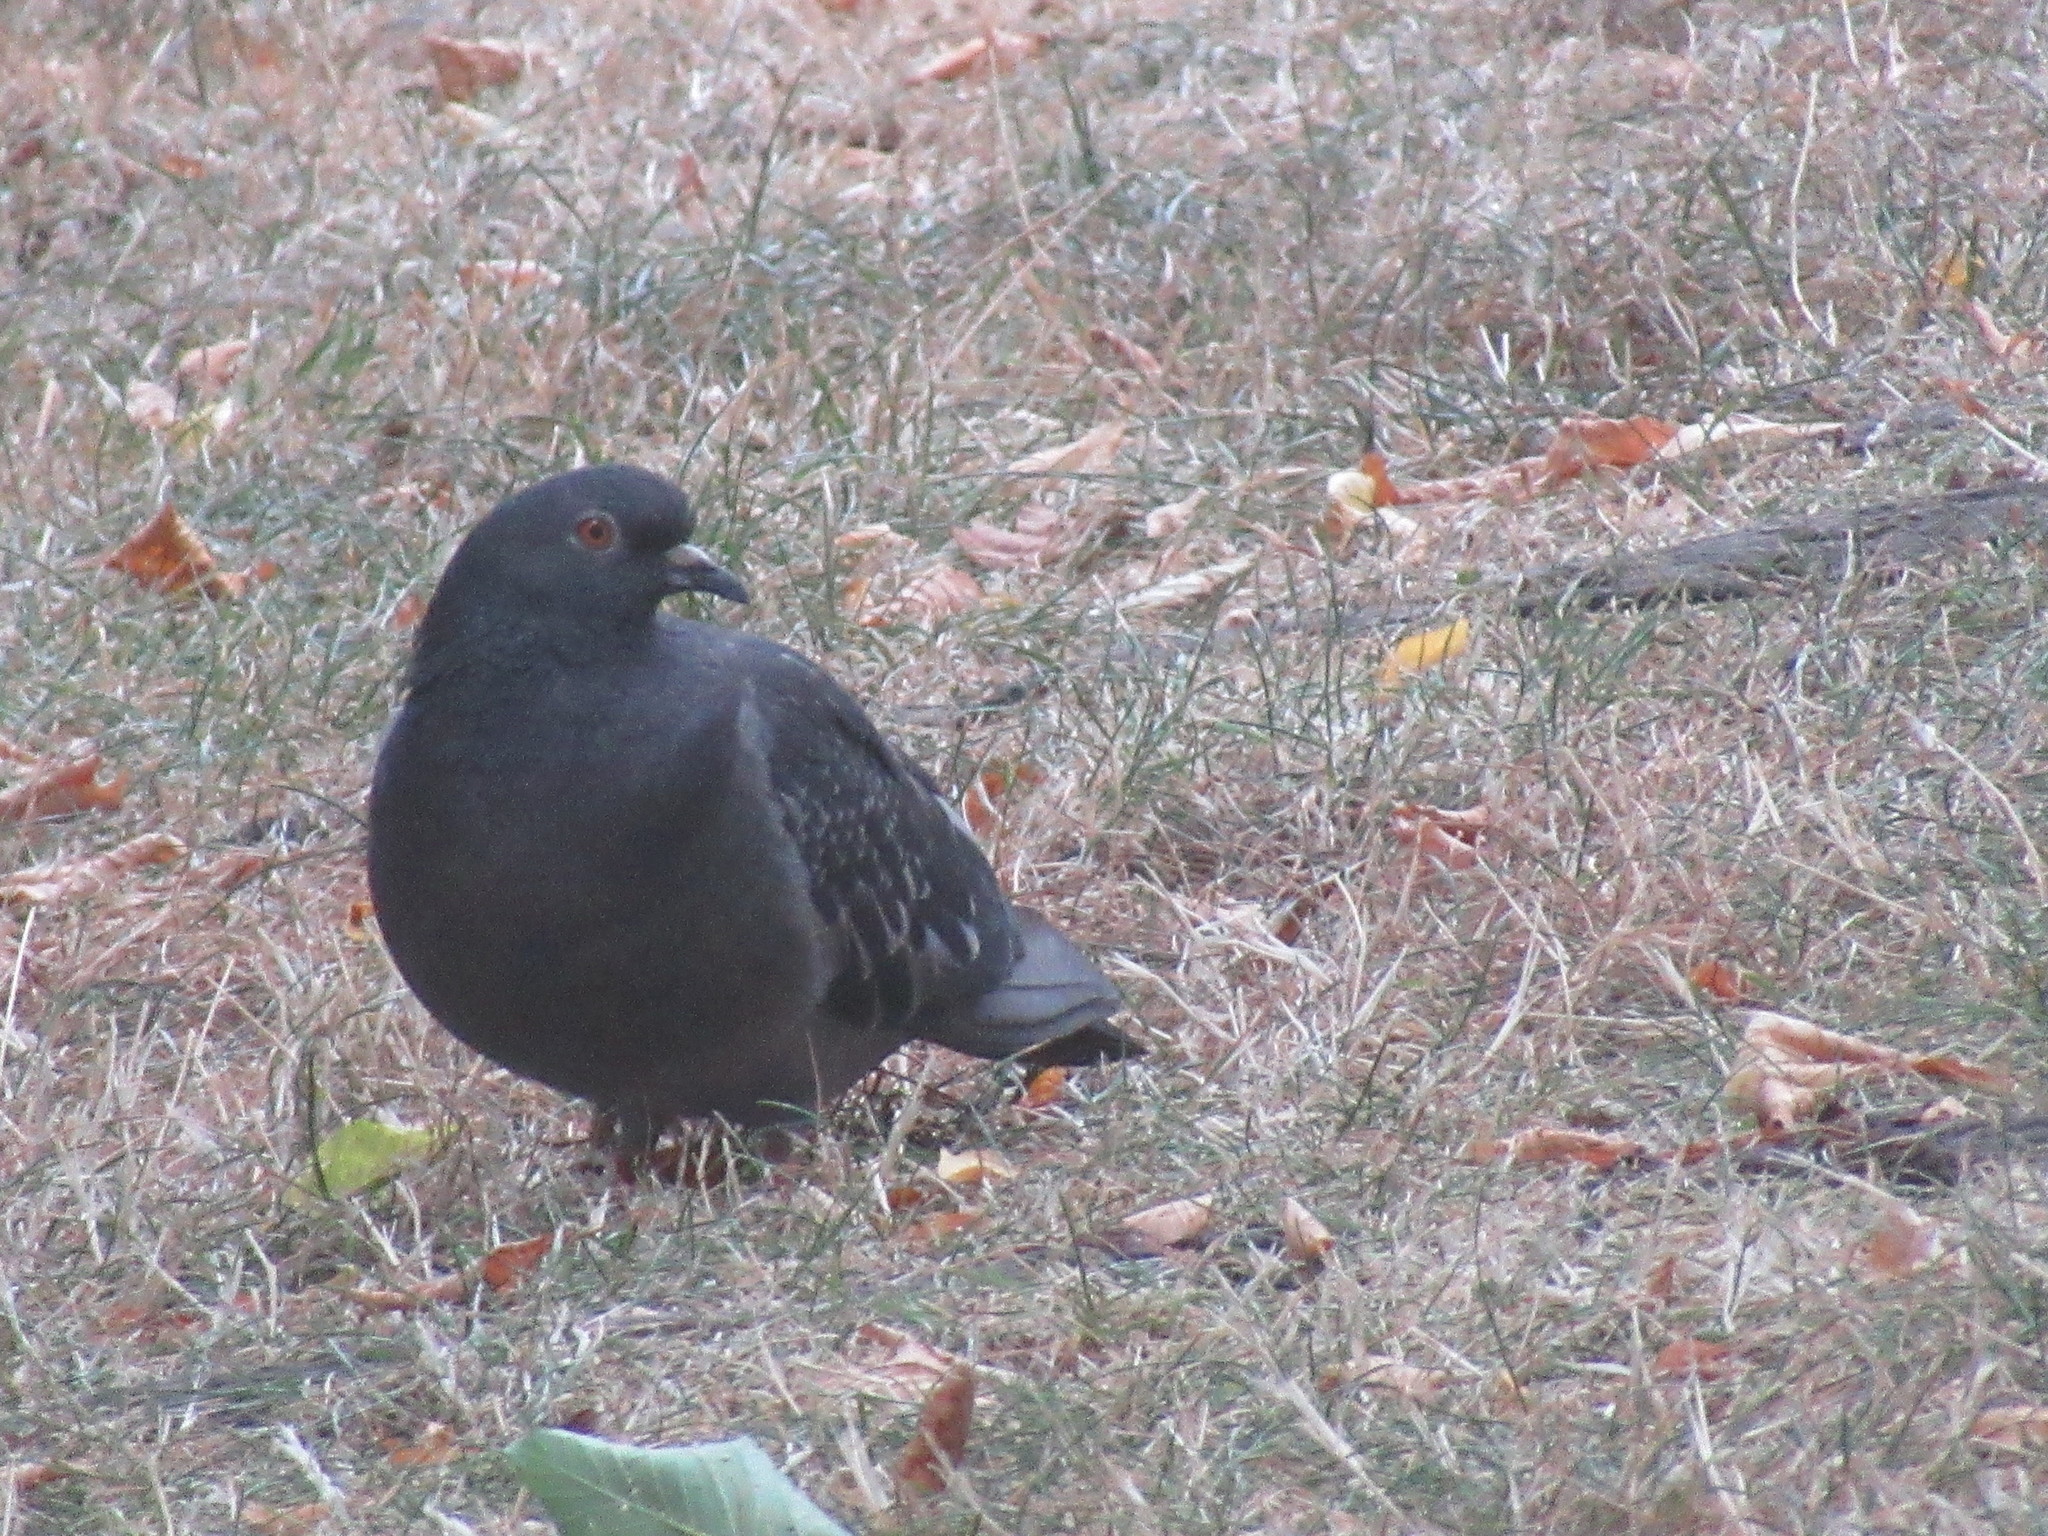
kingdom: Animalia
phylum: Chordata
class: Aves
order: Columbiformes
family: Columbidae
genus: Columba
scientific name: Columba livia
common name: Rock pigeon
